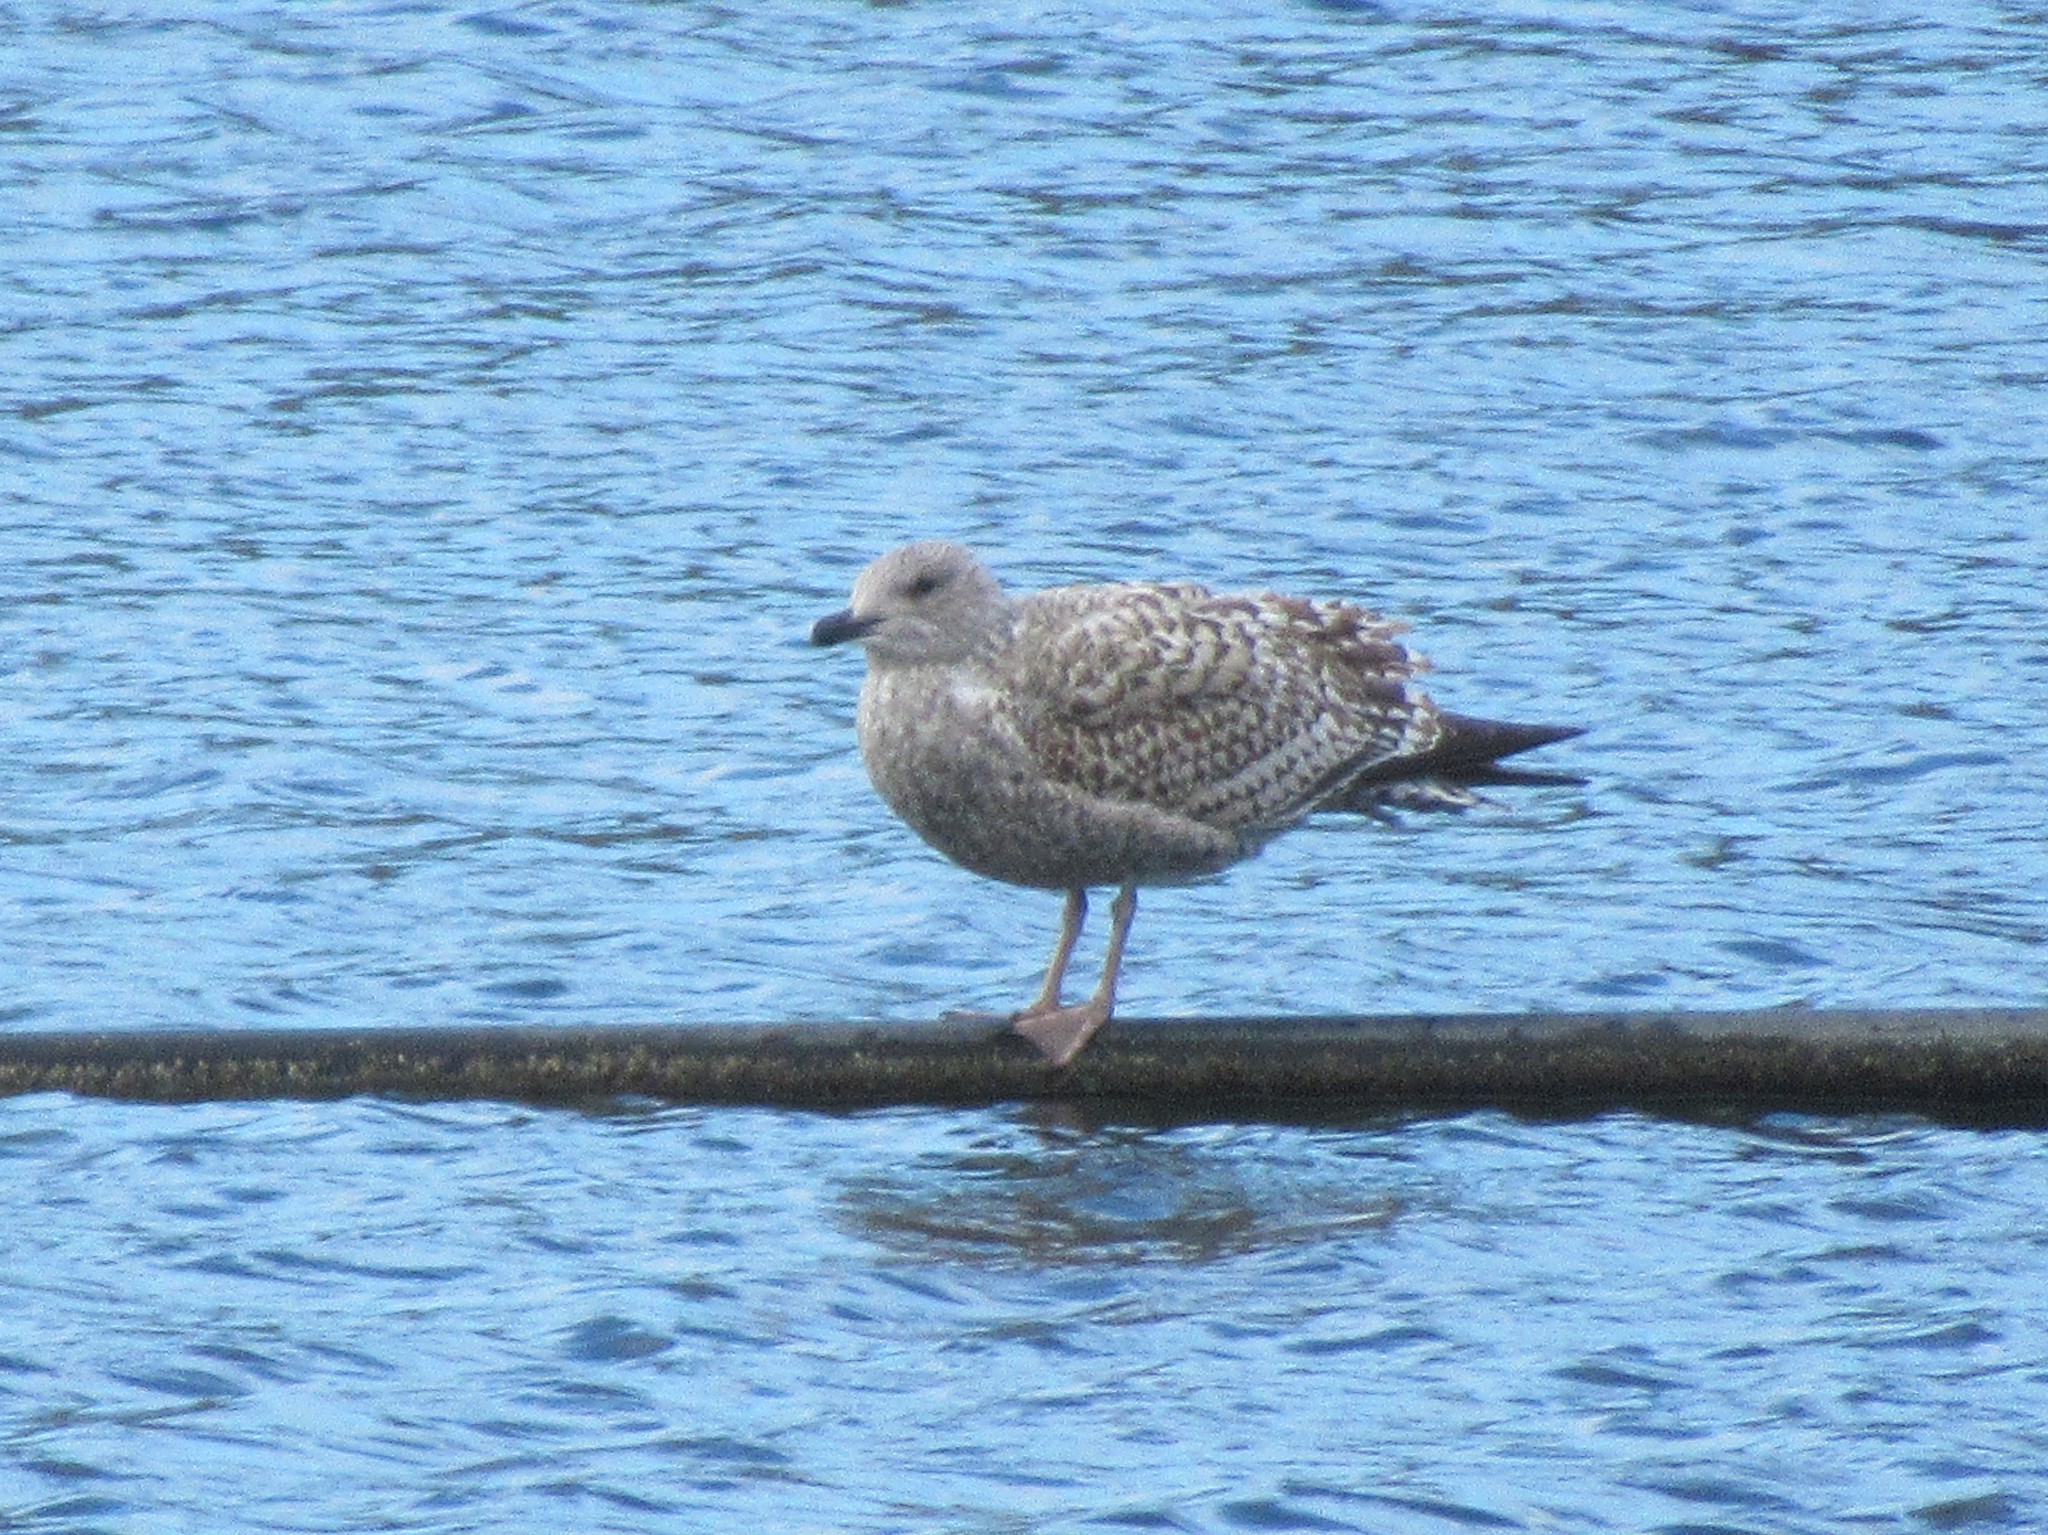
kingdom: Animalia
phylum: Chordata
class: Aves
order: Charadriiformes
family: Laridae
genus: Larus
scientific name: Larus argentatus
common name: Herring gull
